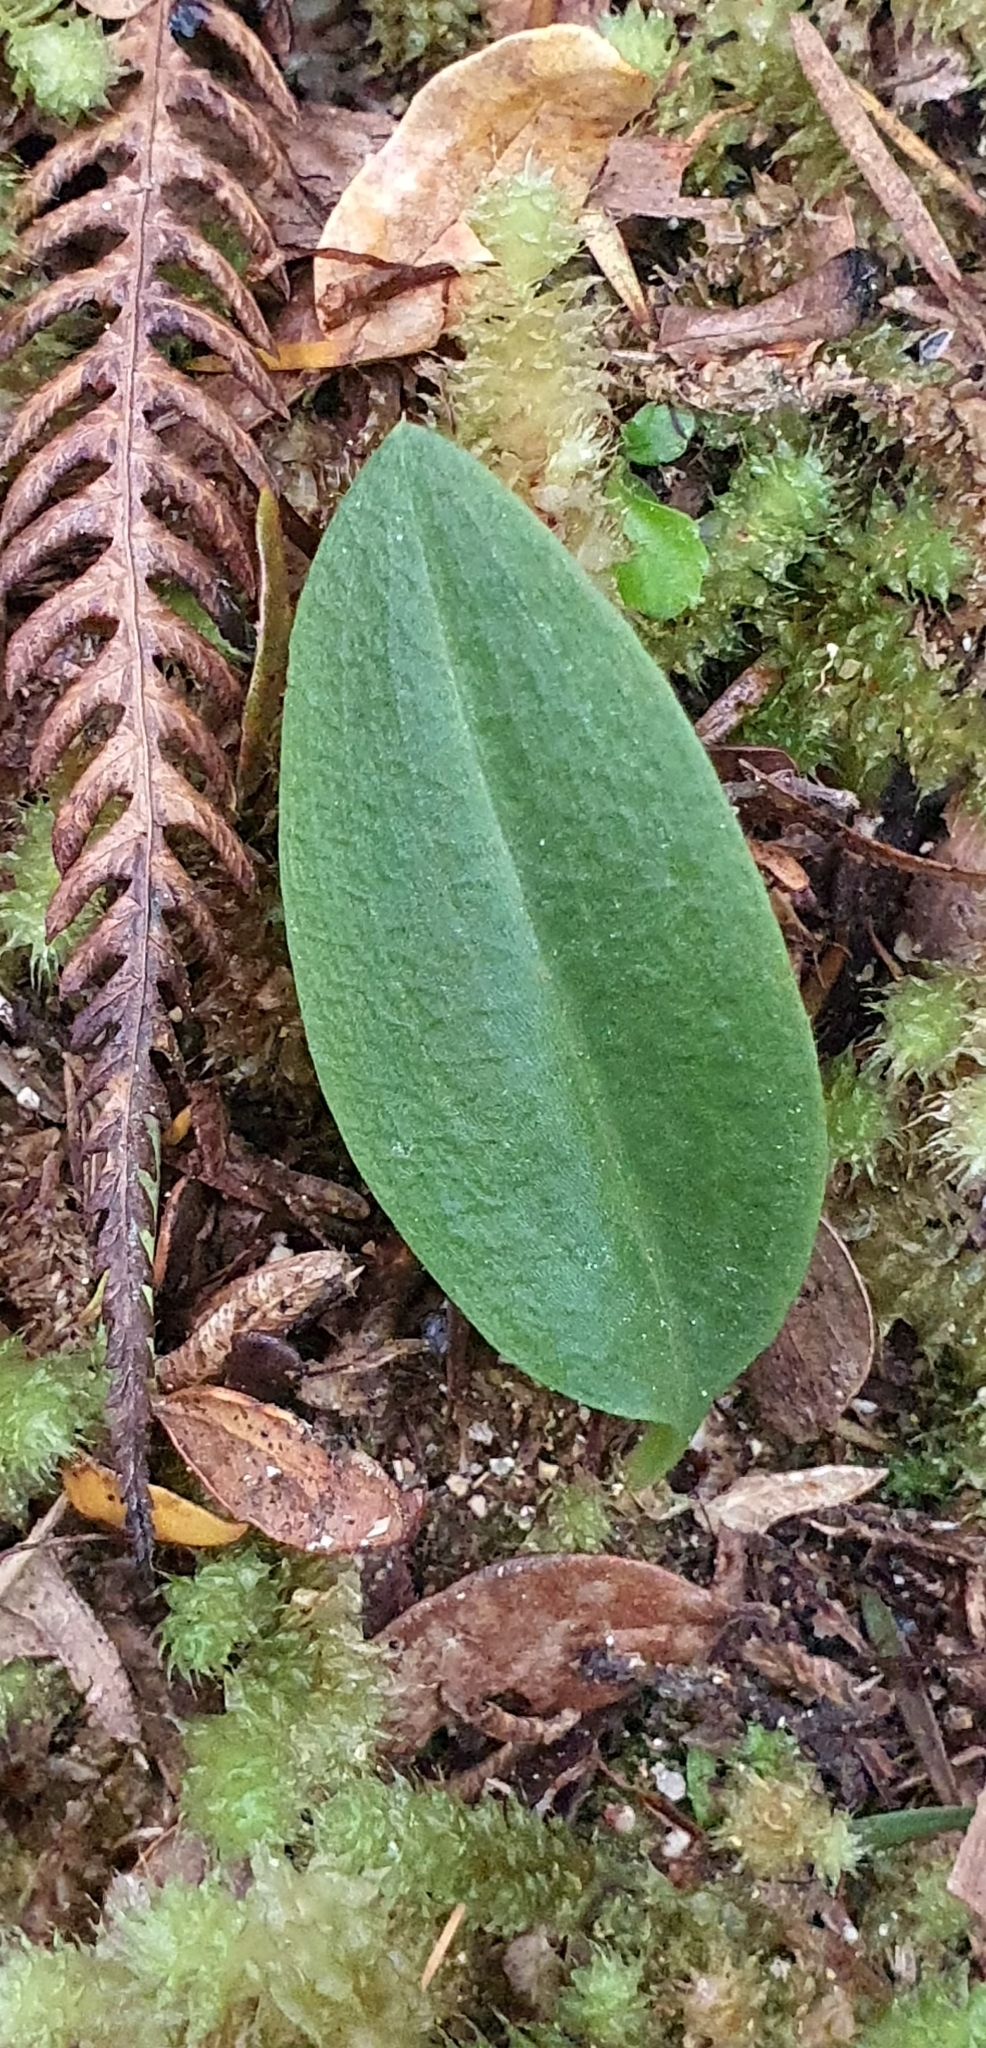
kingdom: Plantae
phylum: Tracheophyta
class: Liliopsida
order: Asparagales
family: Orchidaceae
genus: Chiloglottis
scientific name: Chiloglottis cornuta
